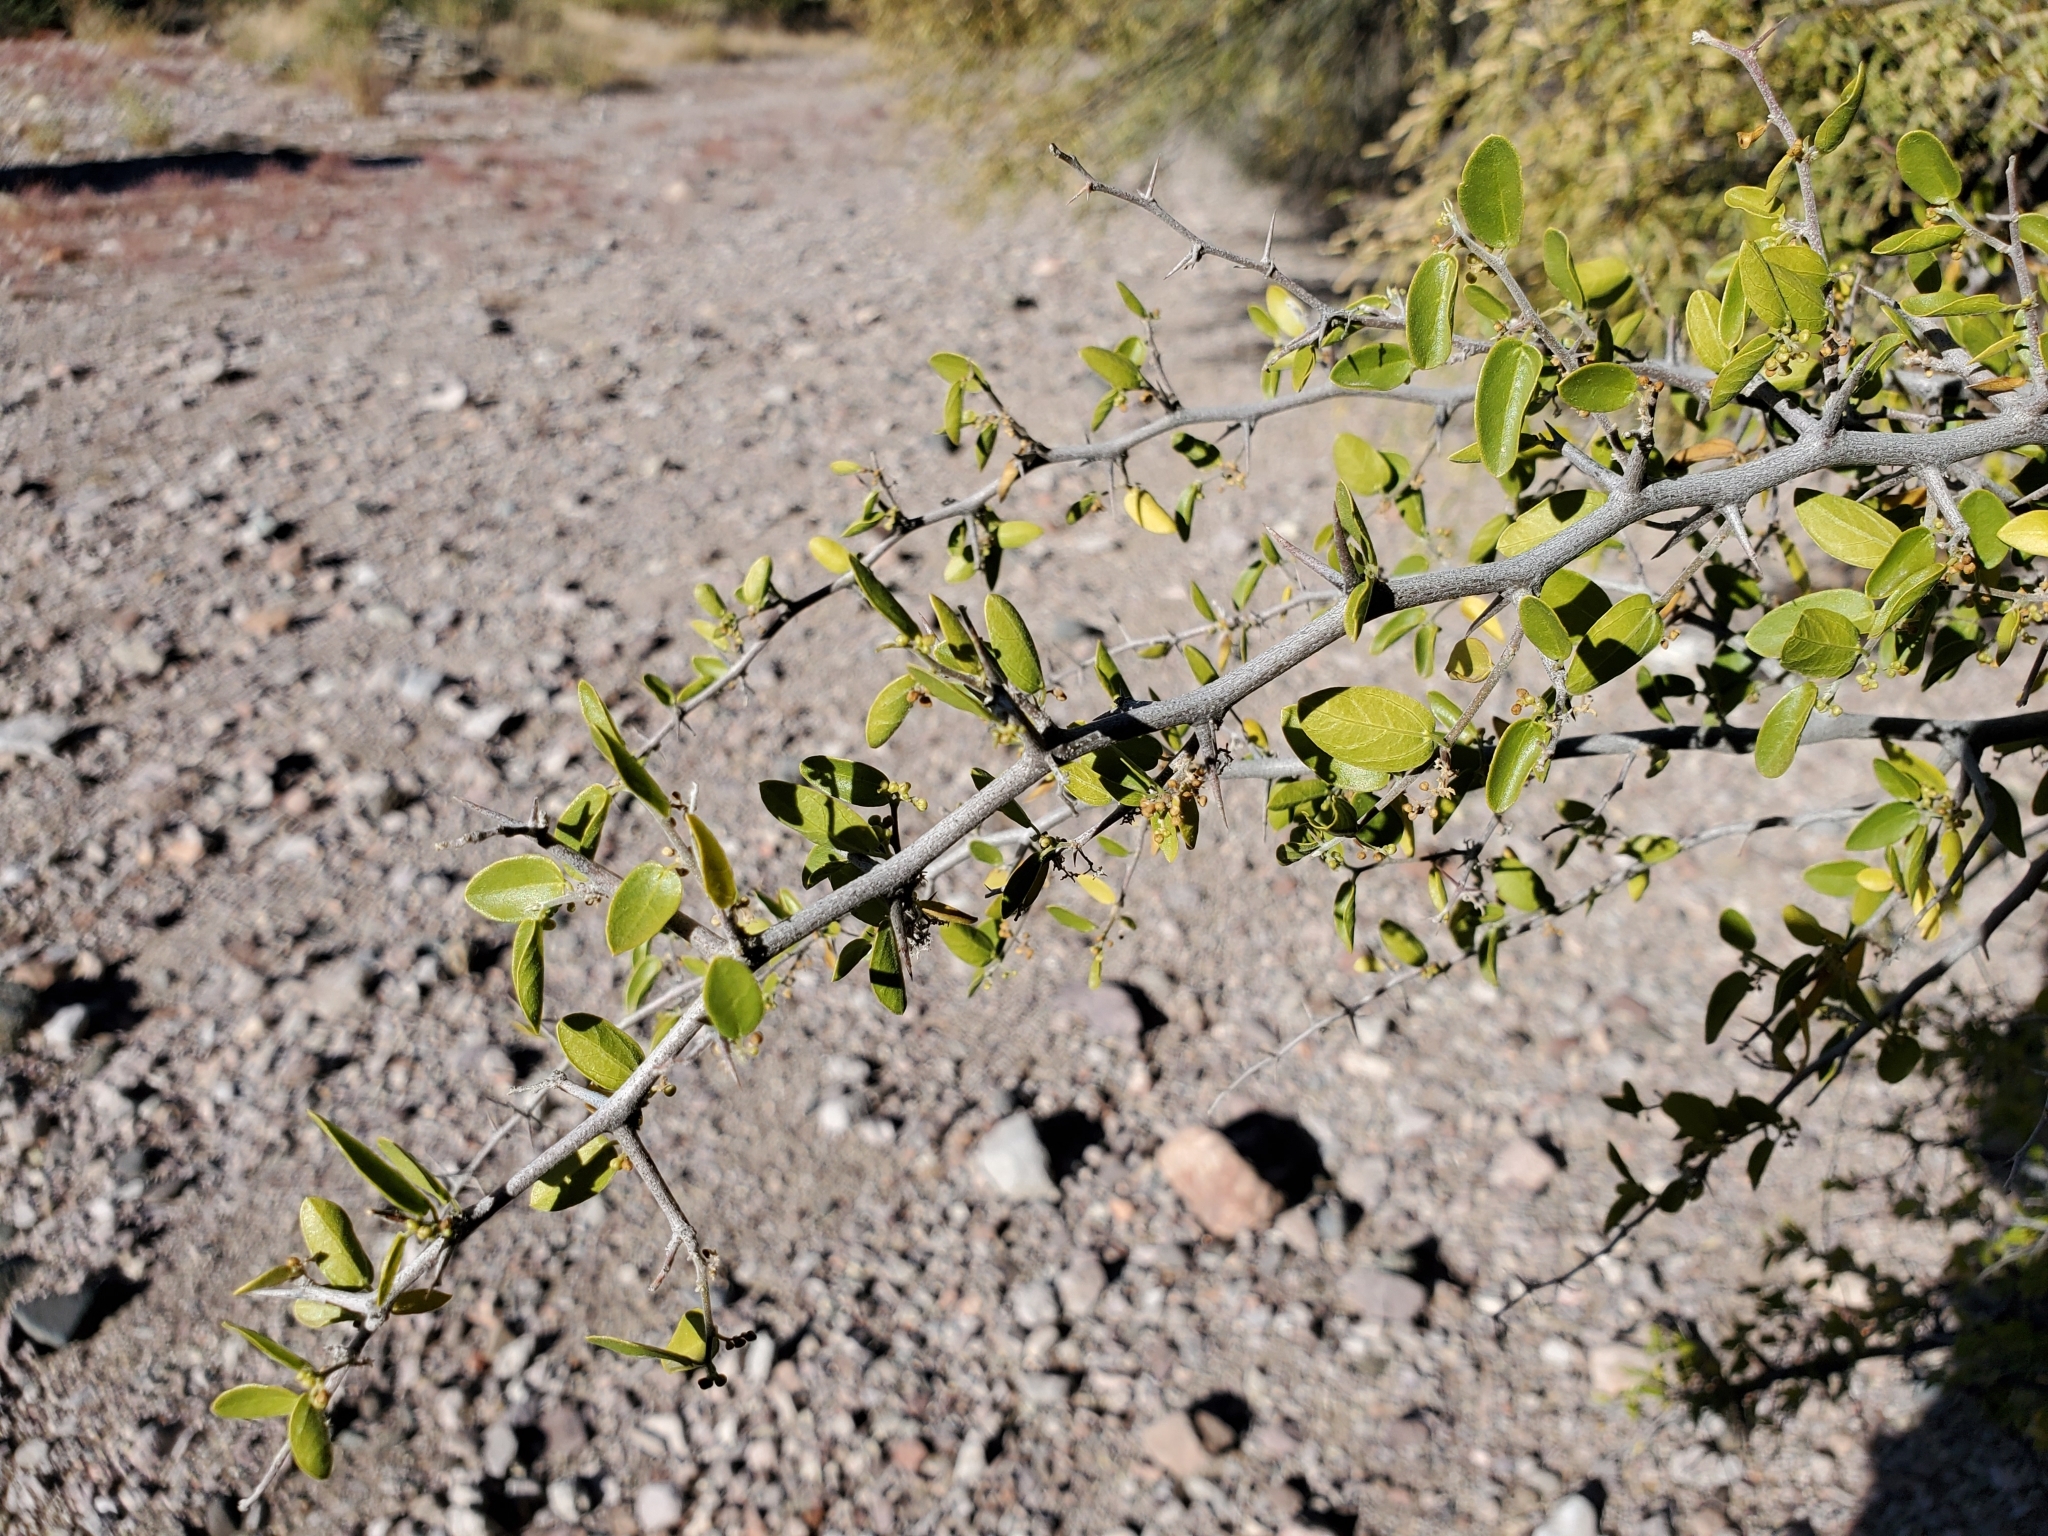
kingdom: Plantae
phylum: Tracheophyta
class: Magnoliopsida
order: Rosales
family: Cannabaceae
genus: Celtis
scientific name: Celtis pallida
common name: Desert hackberry
